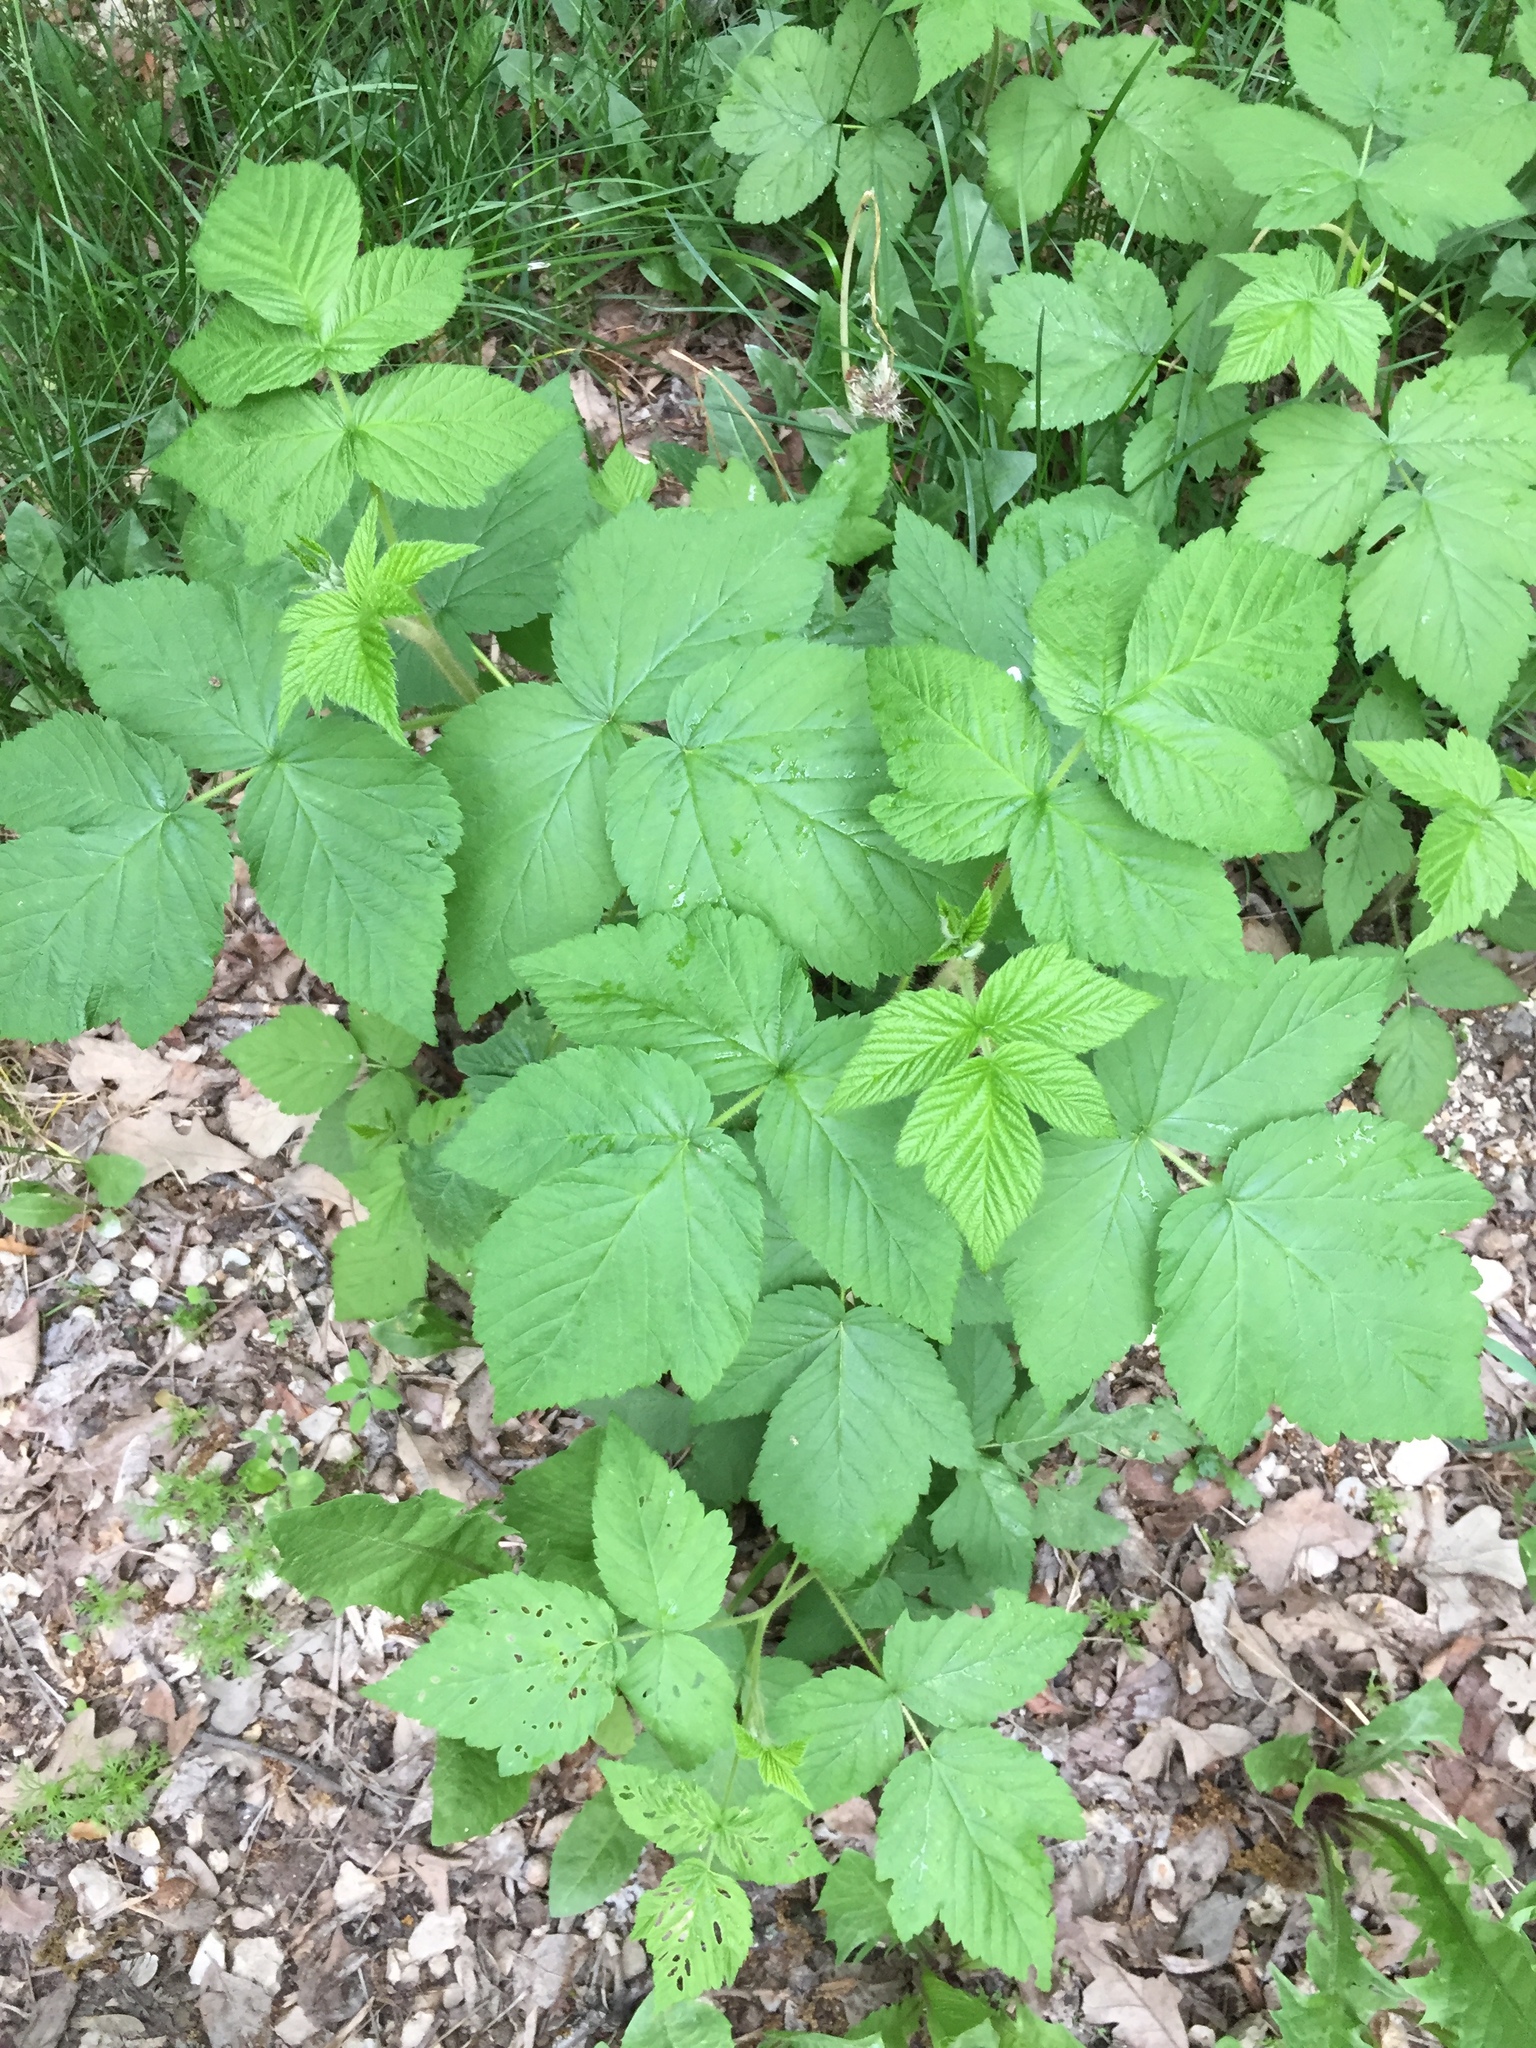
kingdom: Plantae
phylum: Tracheophyta
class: Magnoliopsida
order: Rosales
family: Rosaceae
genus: Rubus
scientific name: Rubus idaeus
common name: Raspberry
